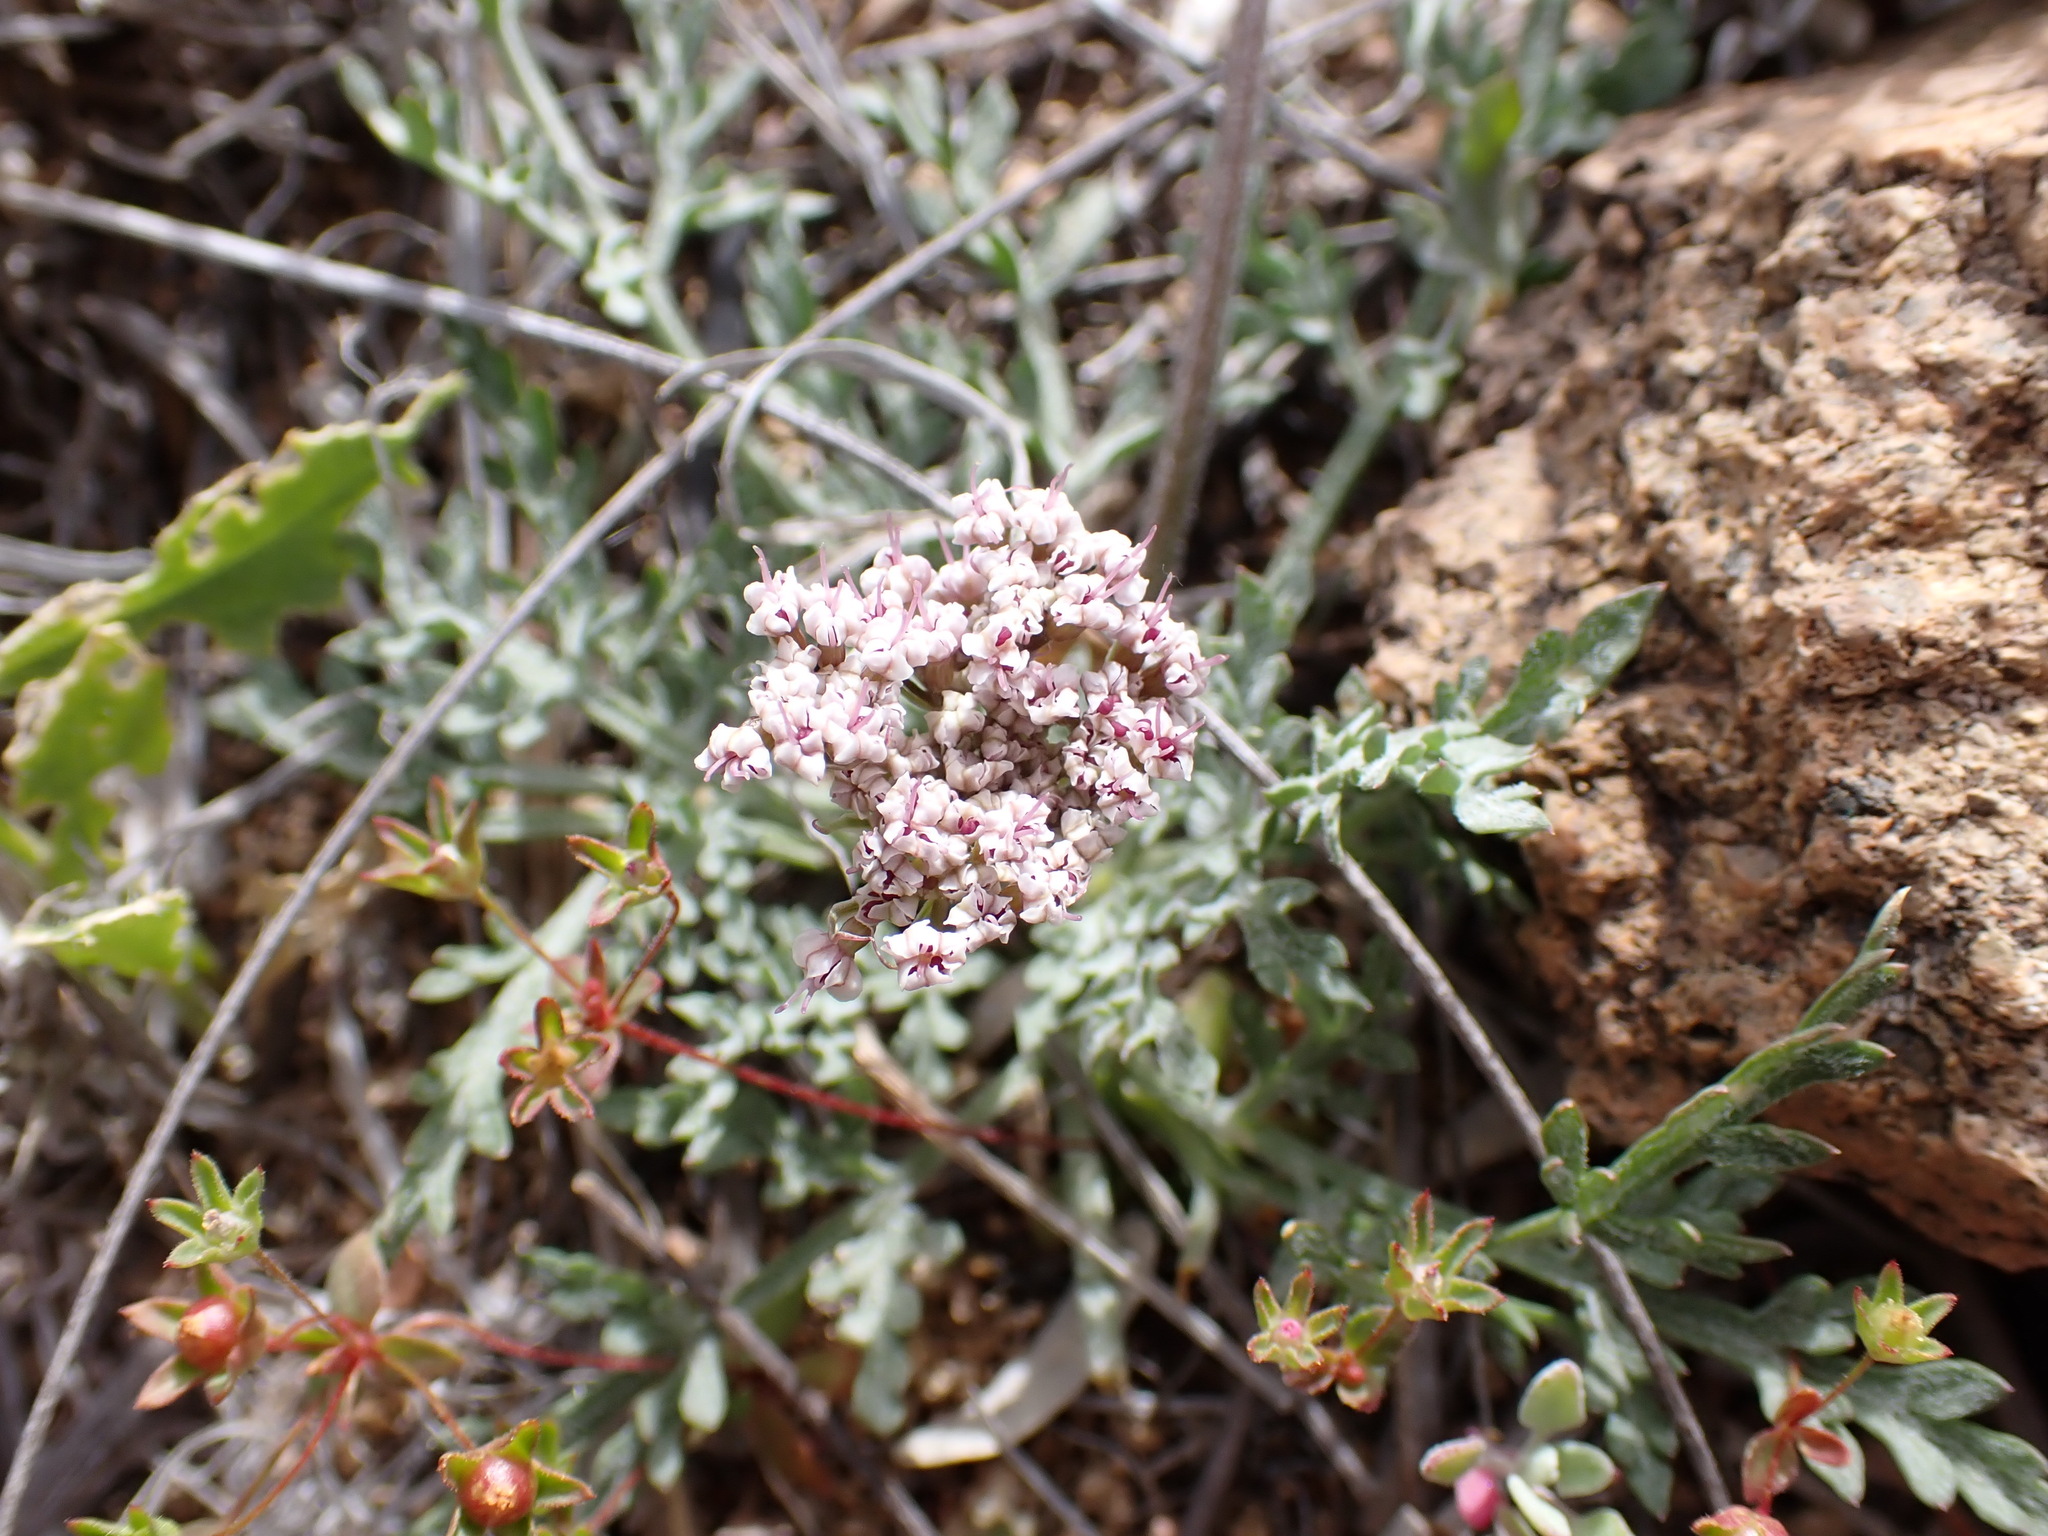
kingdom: Plantae
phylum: Tracheophyta
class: Magnoliopsida
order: Apiales
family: Apiaceae
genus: Lomatium
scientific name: Lomatium nevadense
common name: Nevada lomatium
